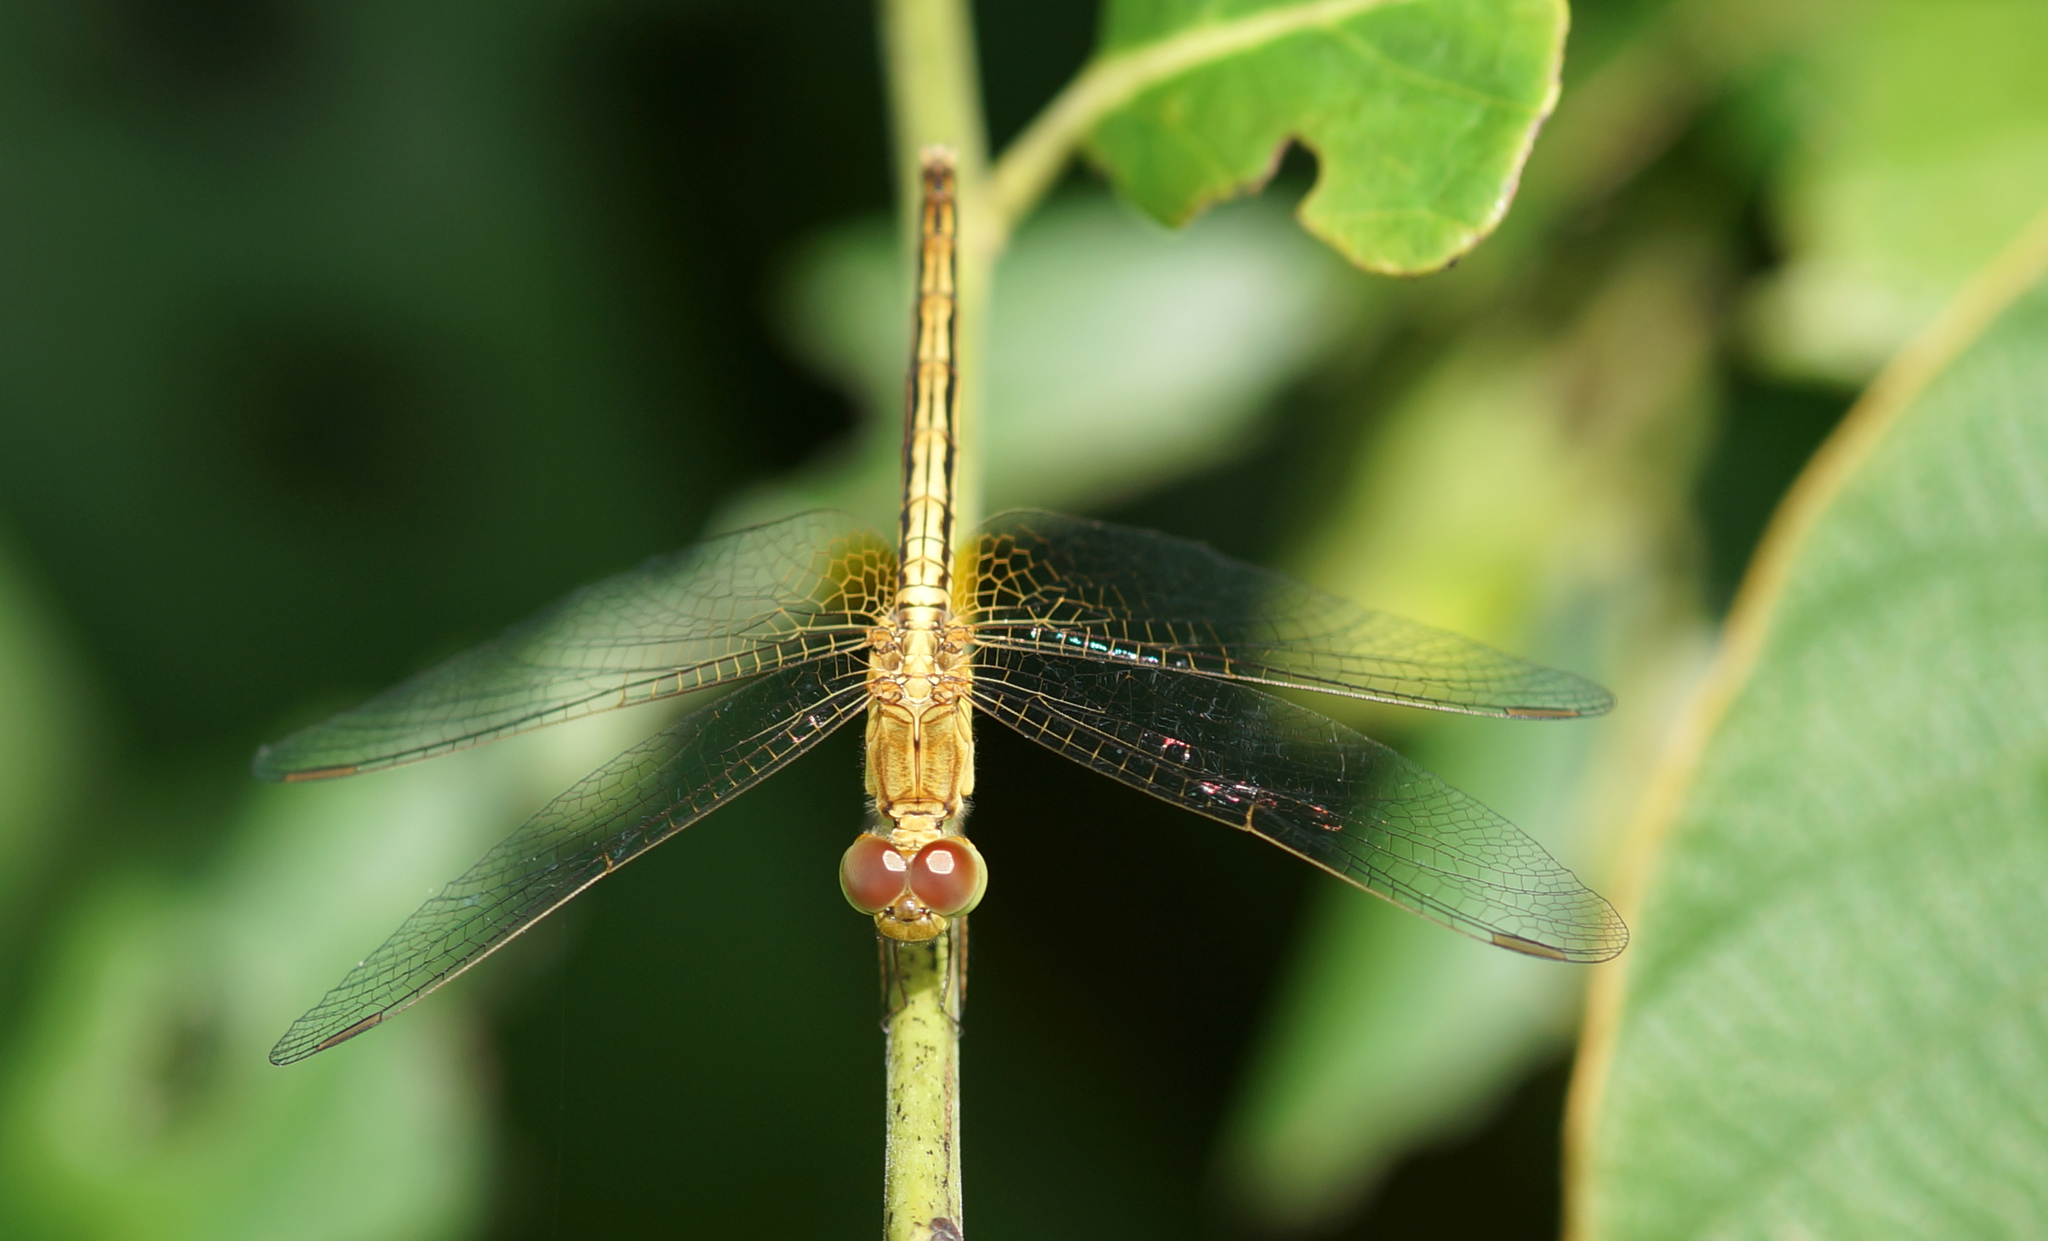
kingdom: Animalia
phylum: Arthropoda
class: Insecta
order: Odonata
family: Libellulidae
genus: Neurothemis
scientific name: Neurothemis intermedia
